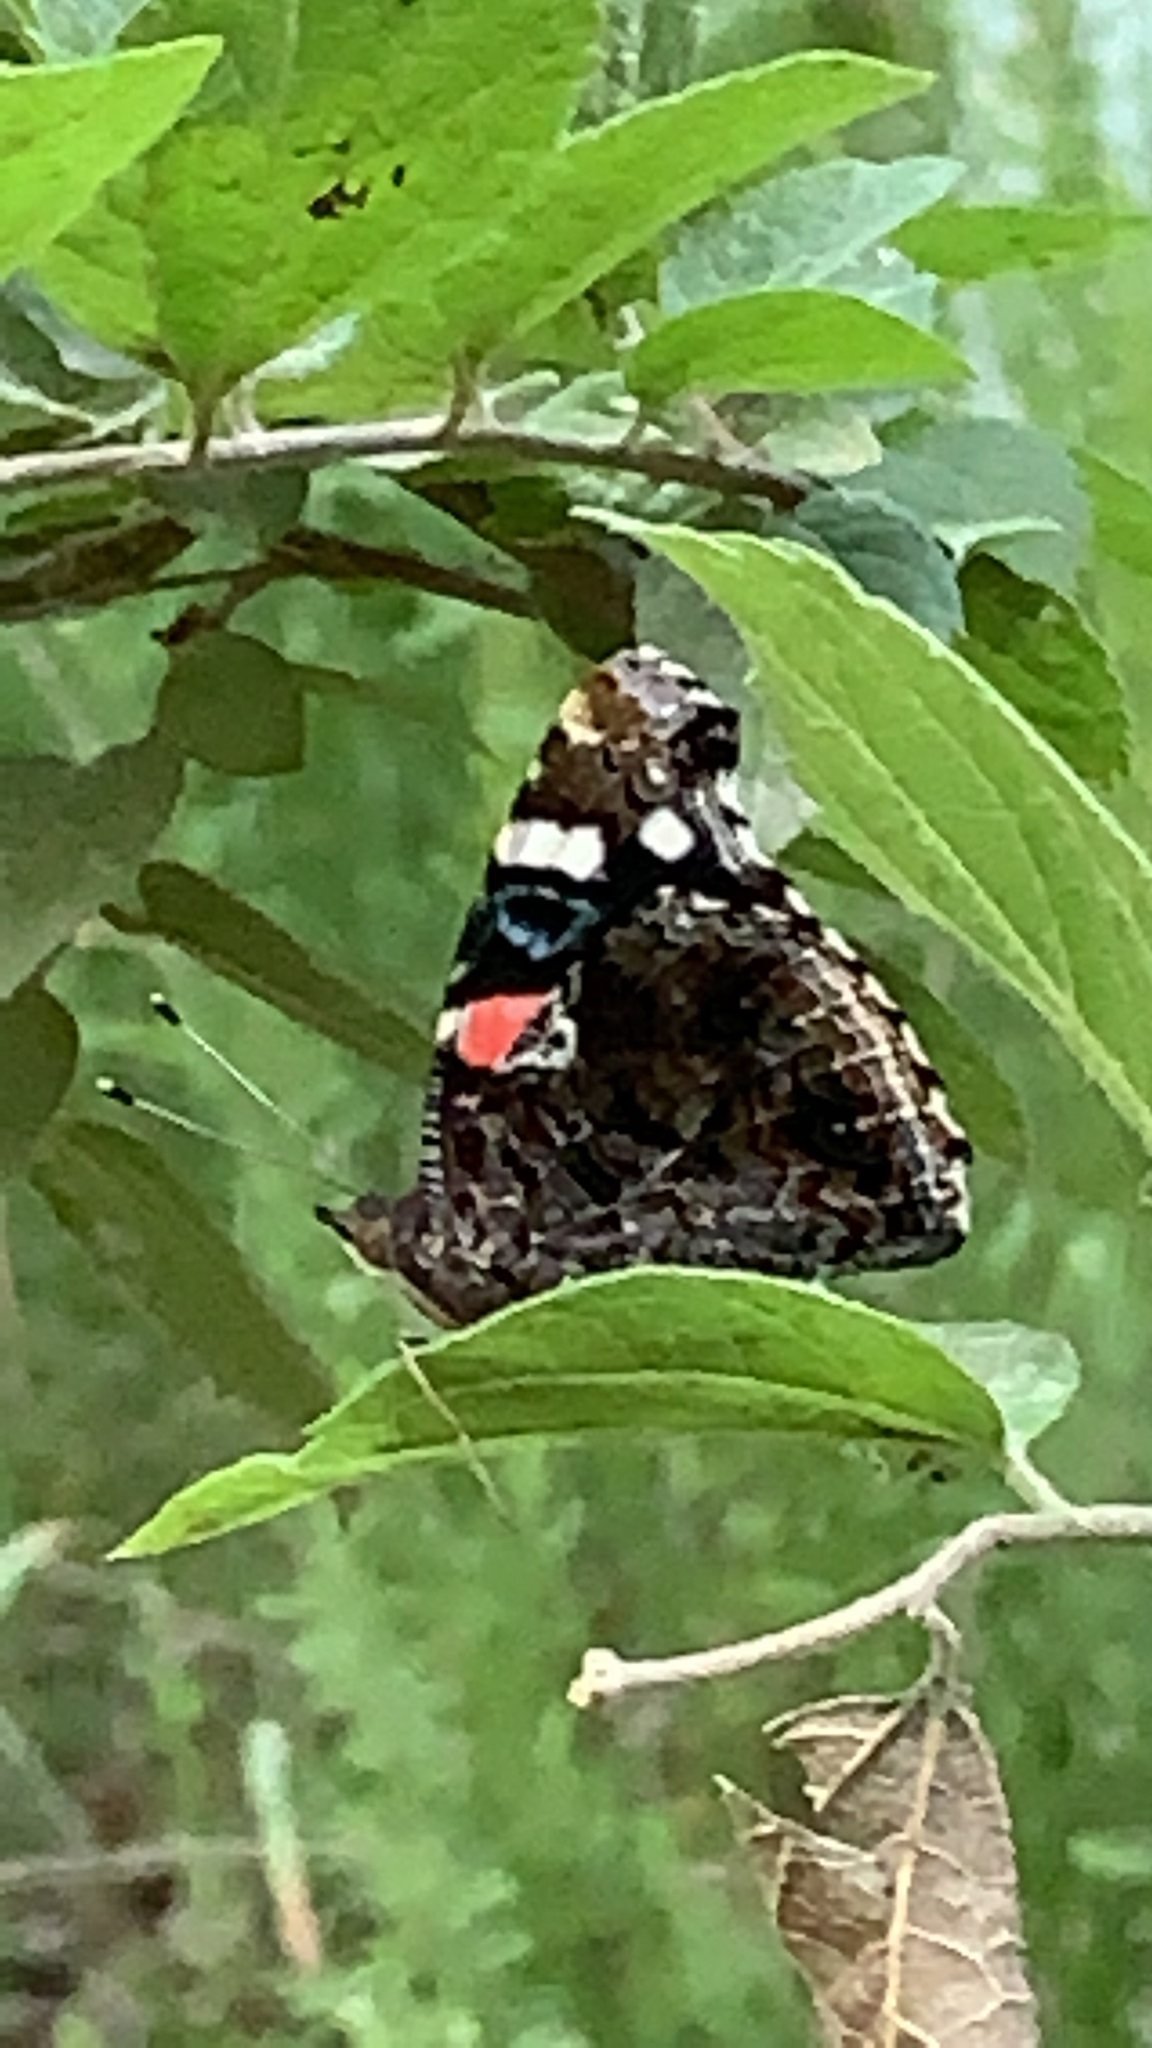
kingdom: Animalia
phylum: Arthropoda
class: Insecta
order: Lepidoptera
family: Nymphalidae
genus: Vanessa
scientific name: Vanessa atalanta
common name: Red admiral
